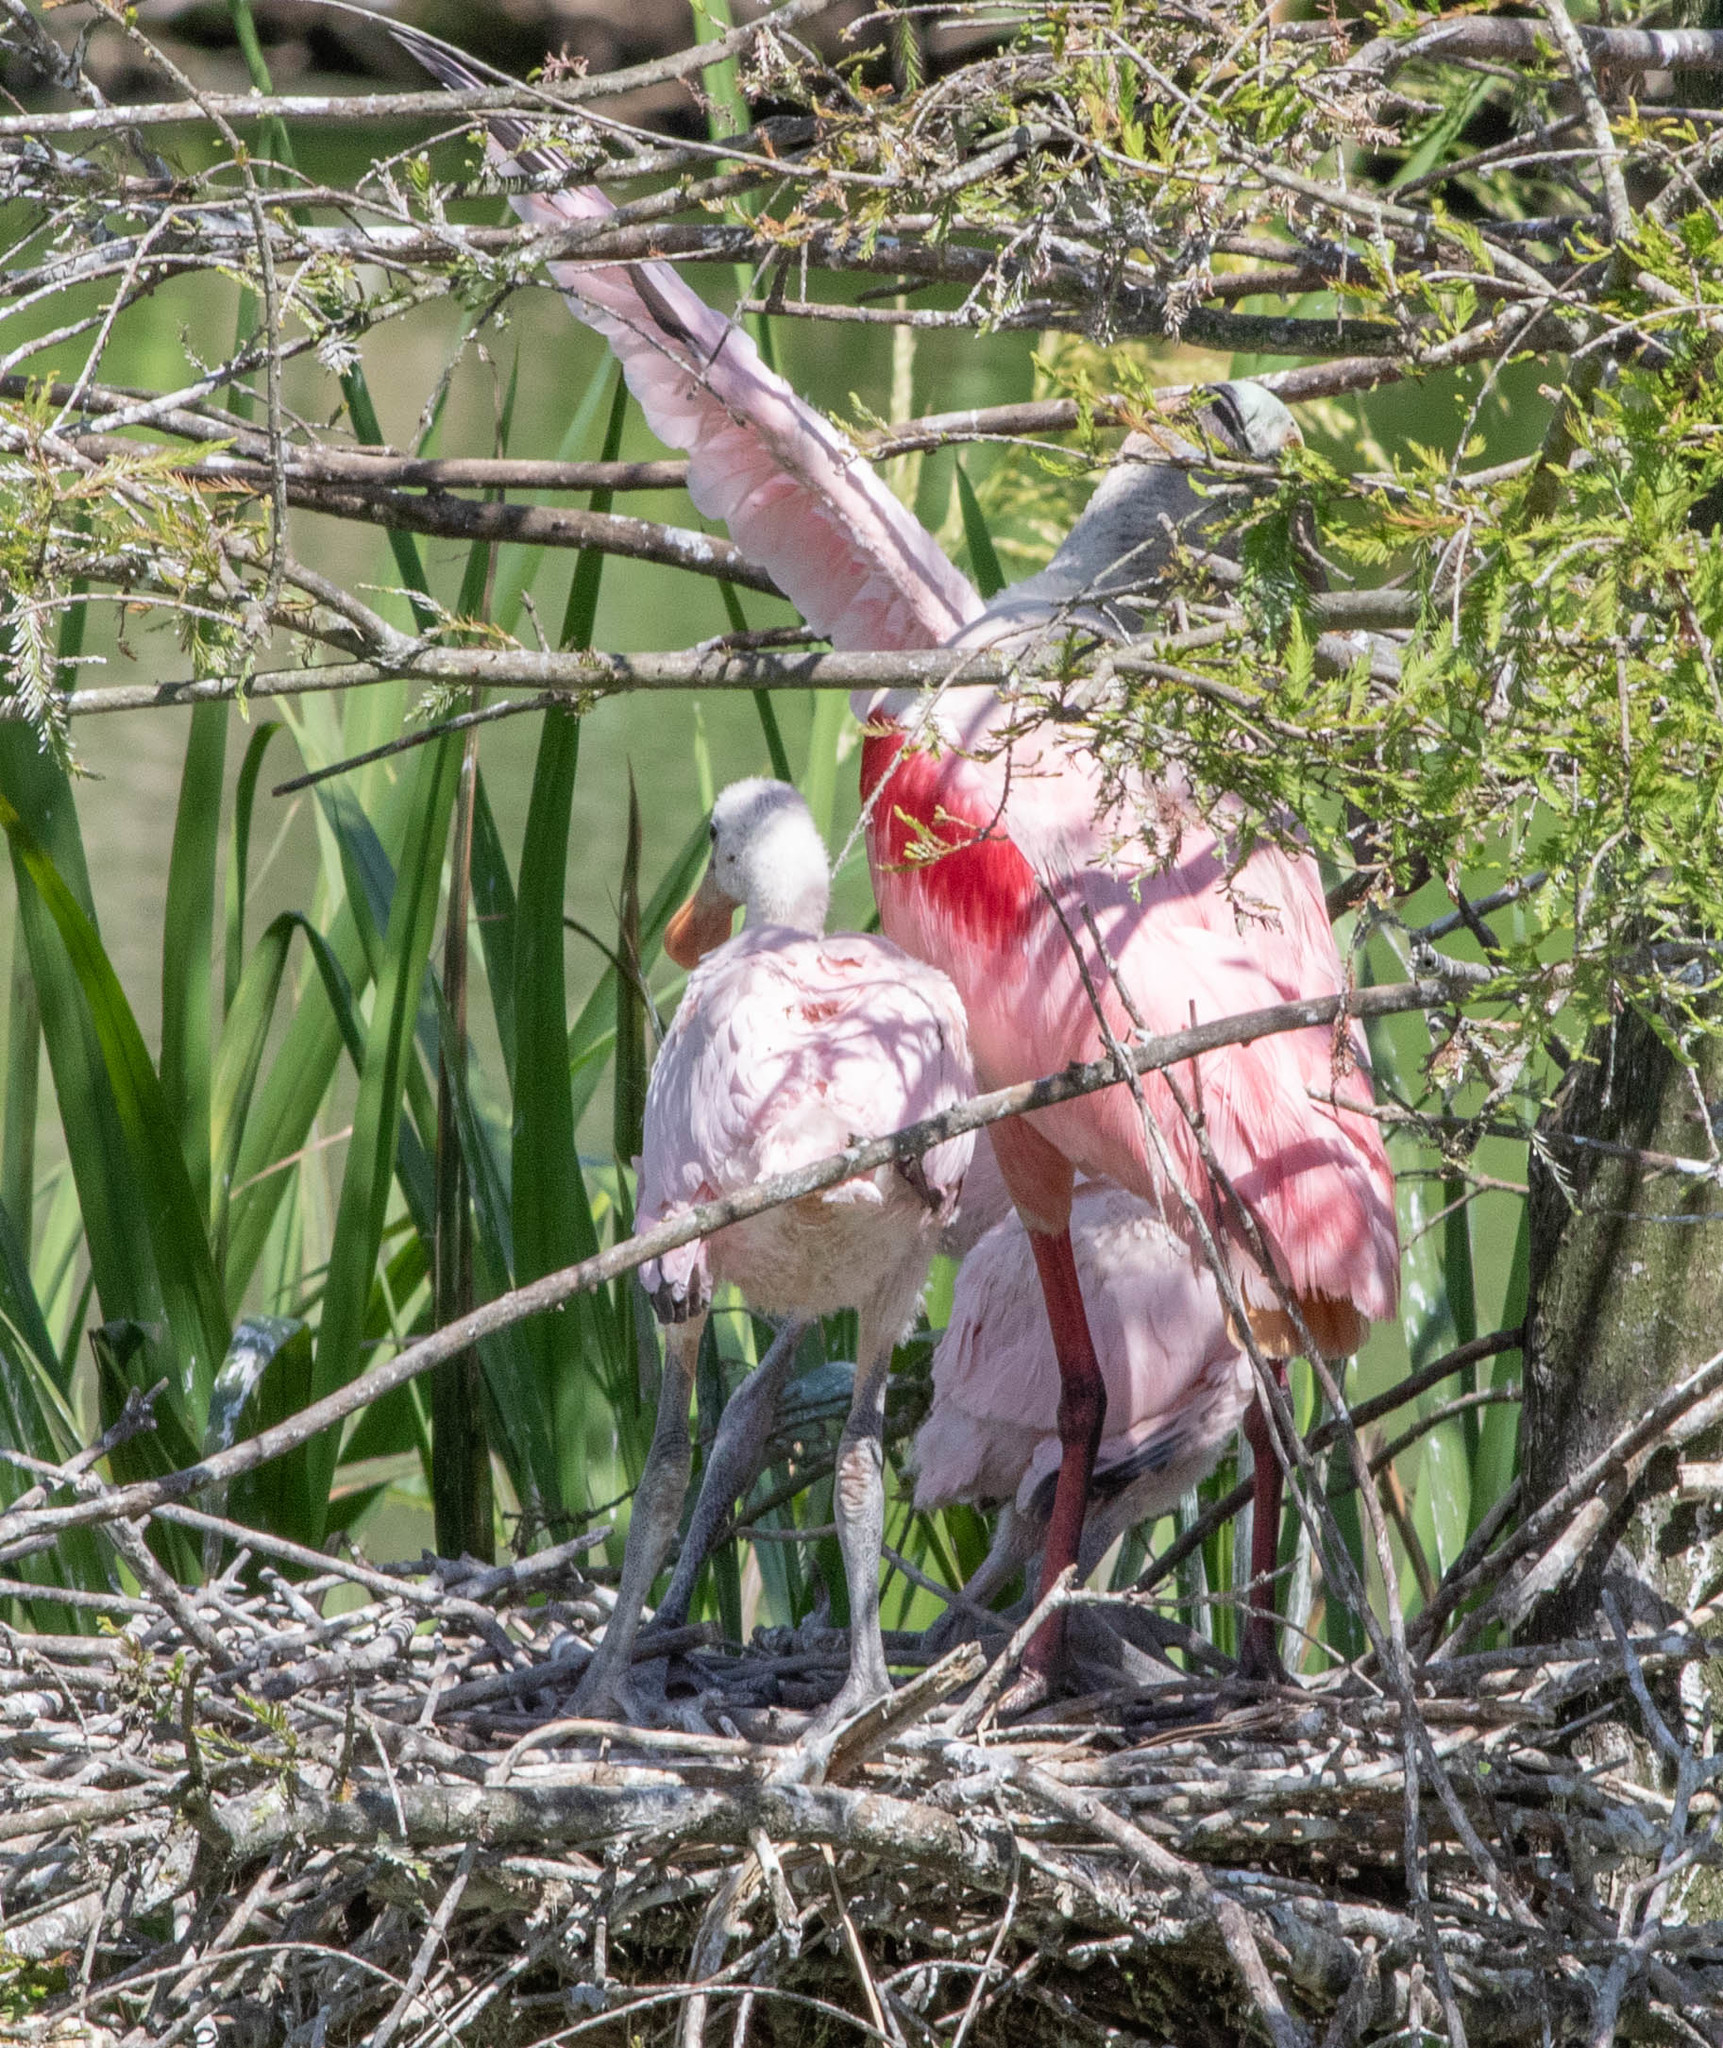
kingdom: Animalia
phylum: Chordata
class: Aves
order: Pelecaniformes
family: Threskiornithidae
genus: Platalea
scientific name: Platalea ajaja
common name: Roseate spoonbill
